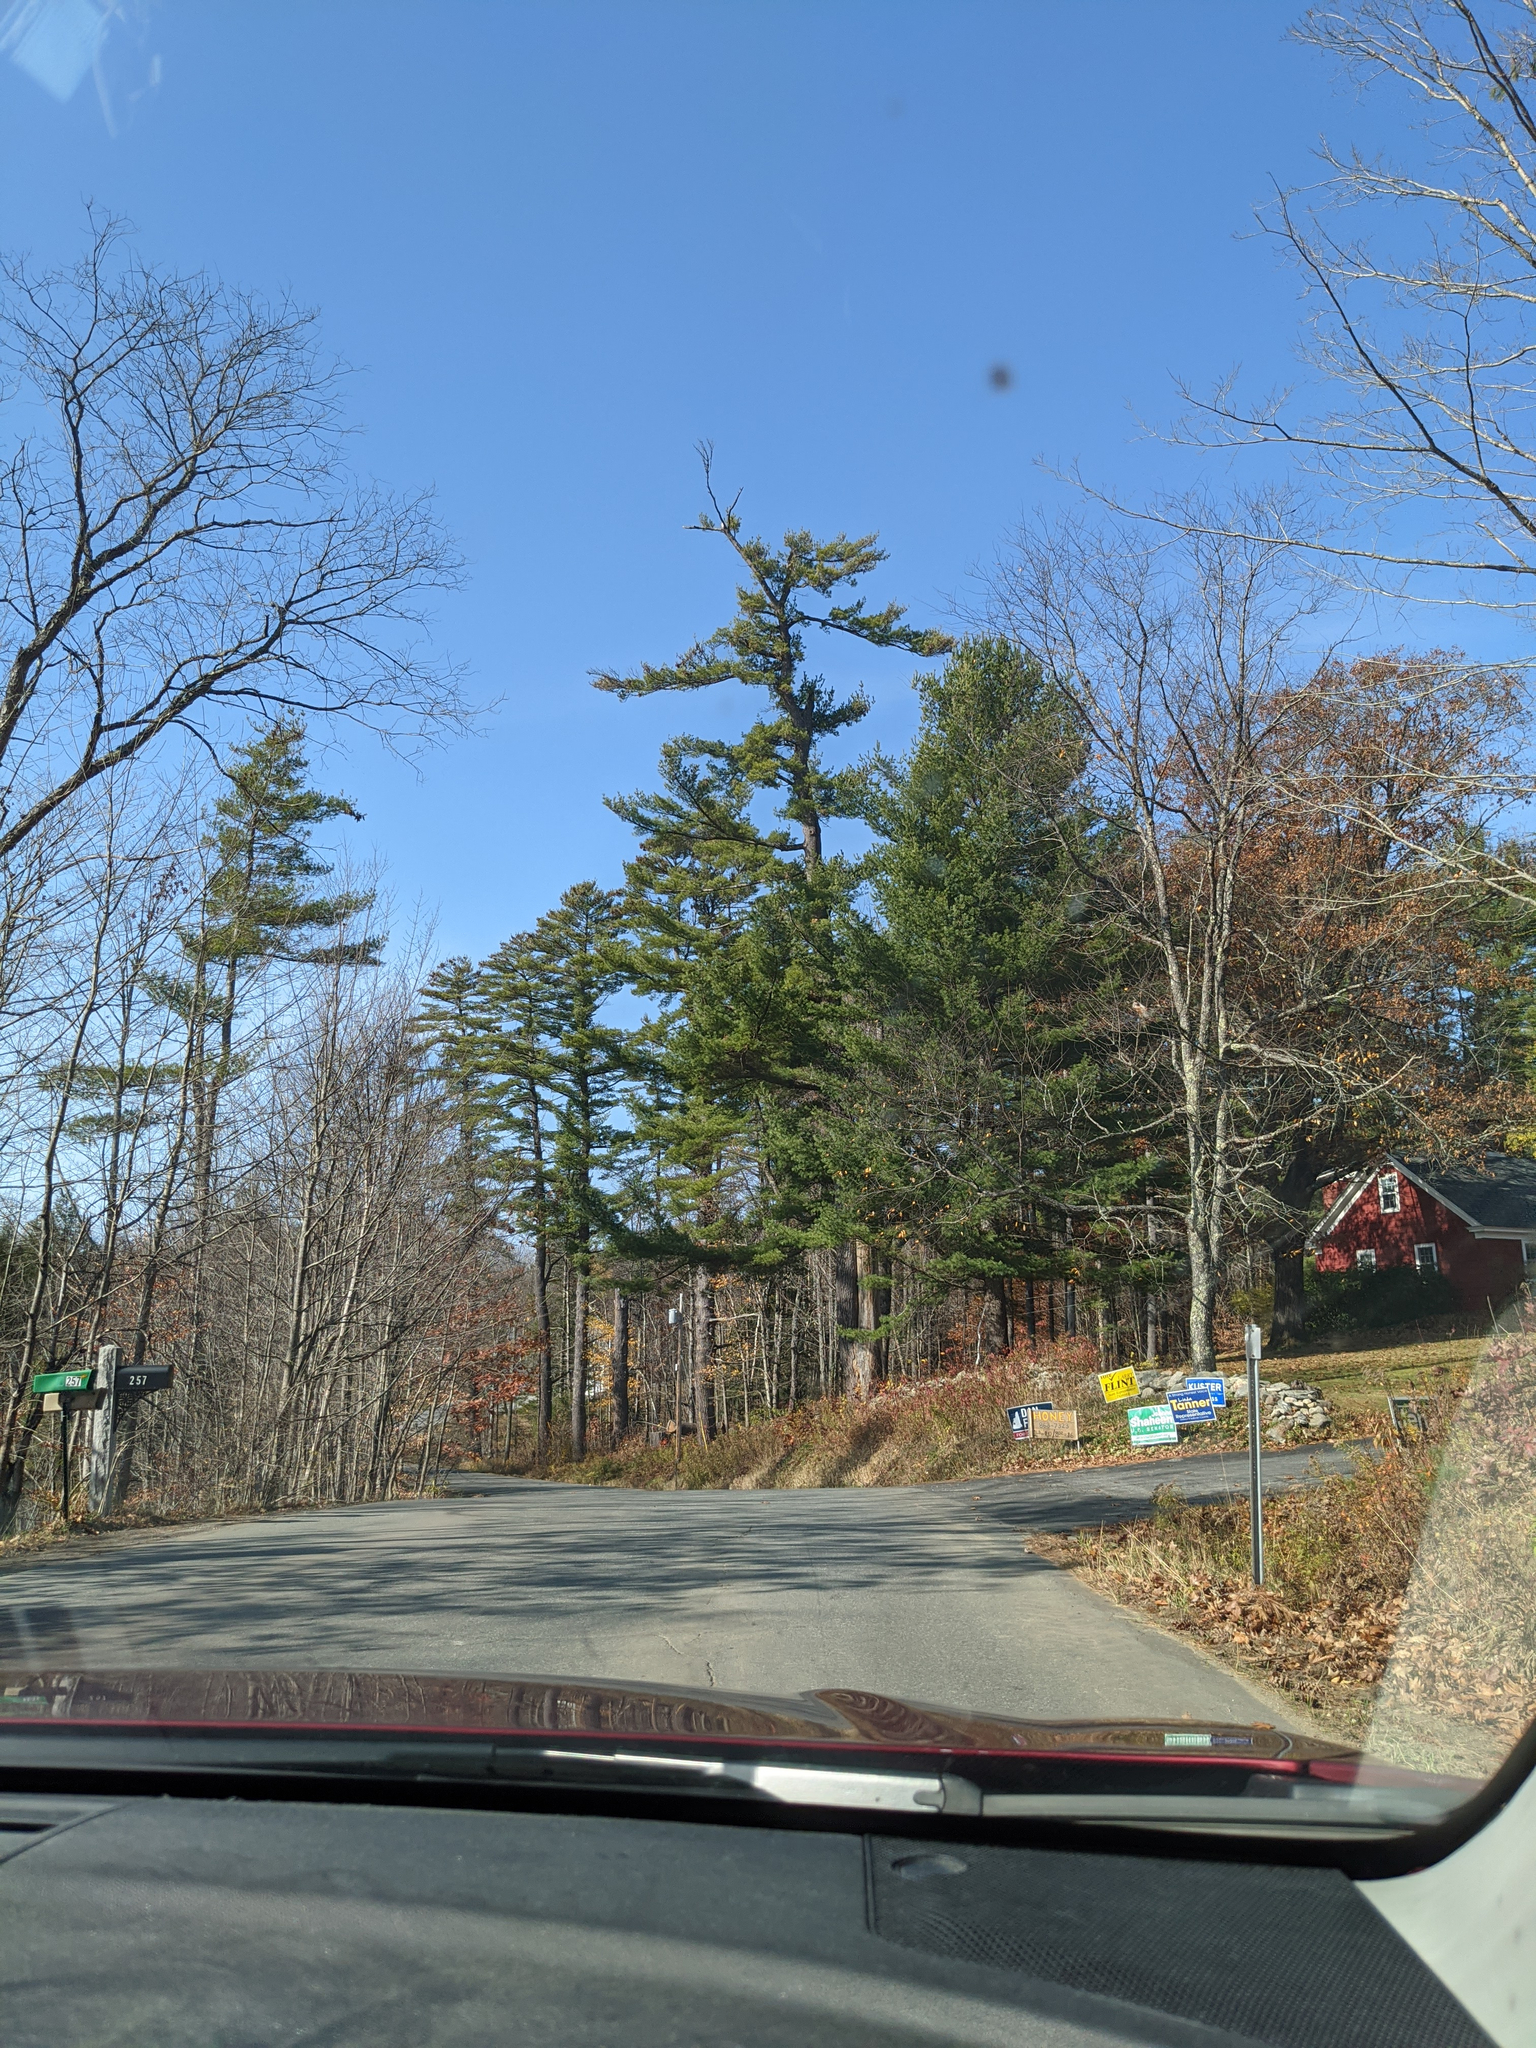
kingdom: Plantae
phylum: Tracheophyta
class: Pinopsida
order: Pinales
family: Pinaceae
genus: Pinus
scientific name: Pinus strobus
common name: Weymouth pine
